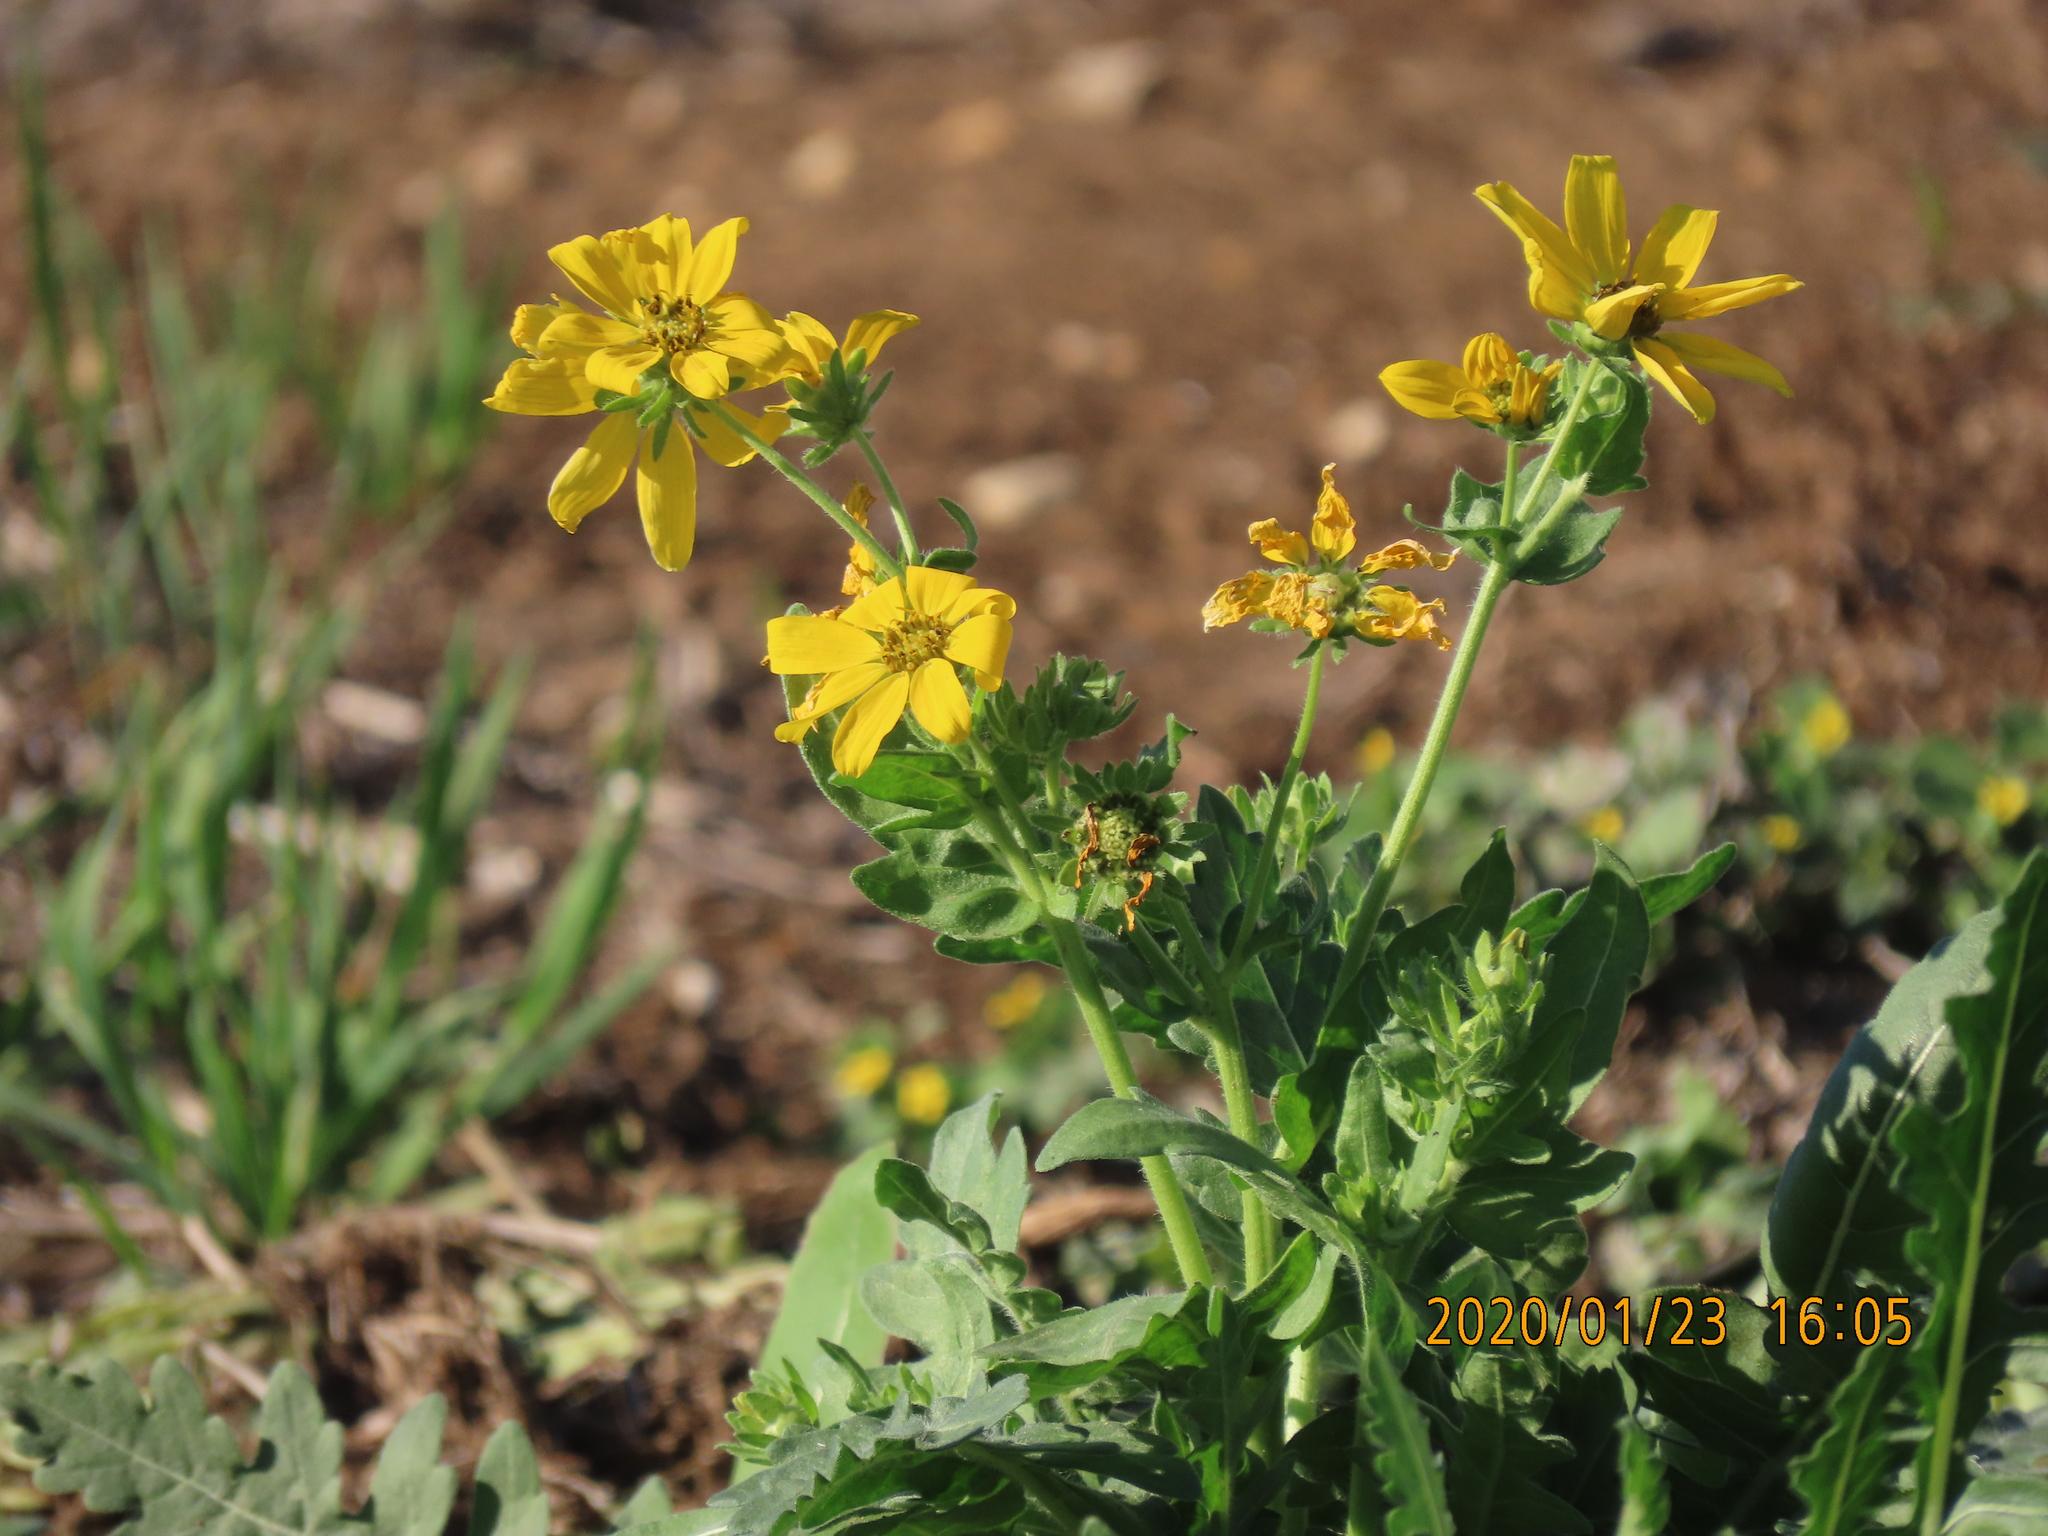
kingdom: Plantae
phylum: Tracheophyta
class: Magnoliopsida
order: Asterales
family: Asteraceae
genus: Engelmannia
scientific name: Engelmannia peristenia
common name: Engelmann's daisy
